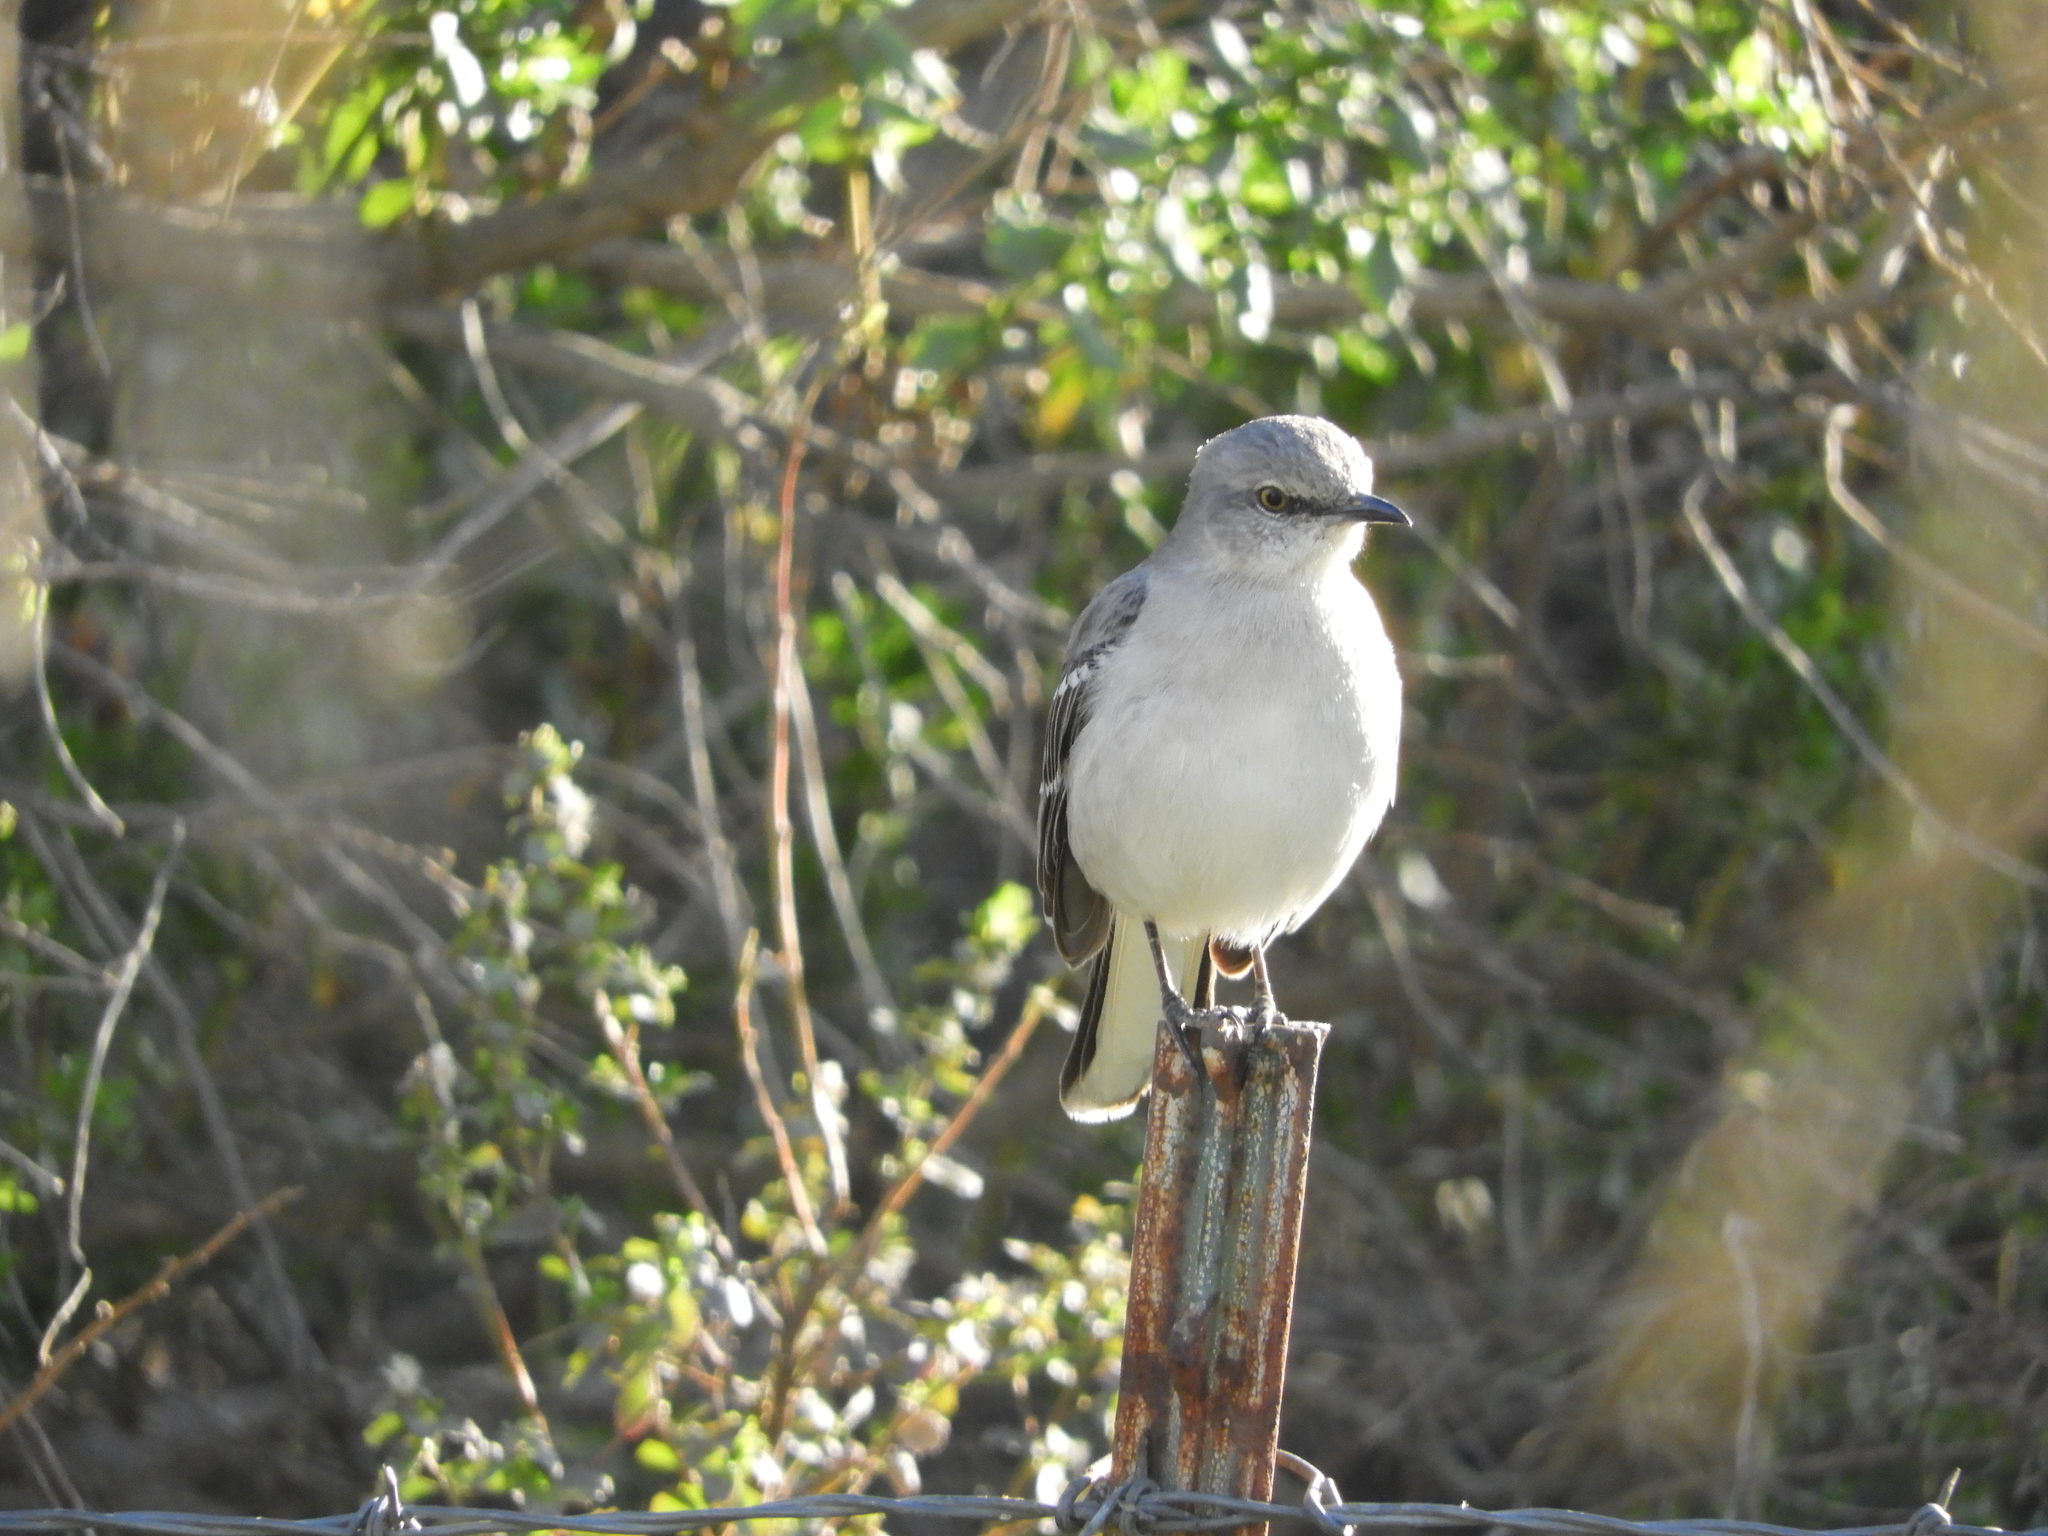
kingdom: Animalia
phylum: Chordata
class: Aves
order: Passeriformes
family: Mimidae
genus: Mimus
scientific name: Mimus polyglottos
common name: Northern mockingbird
